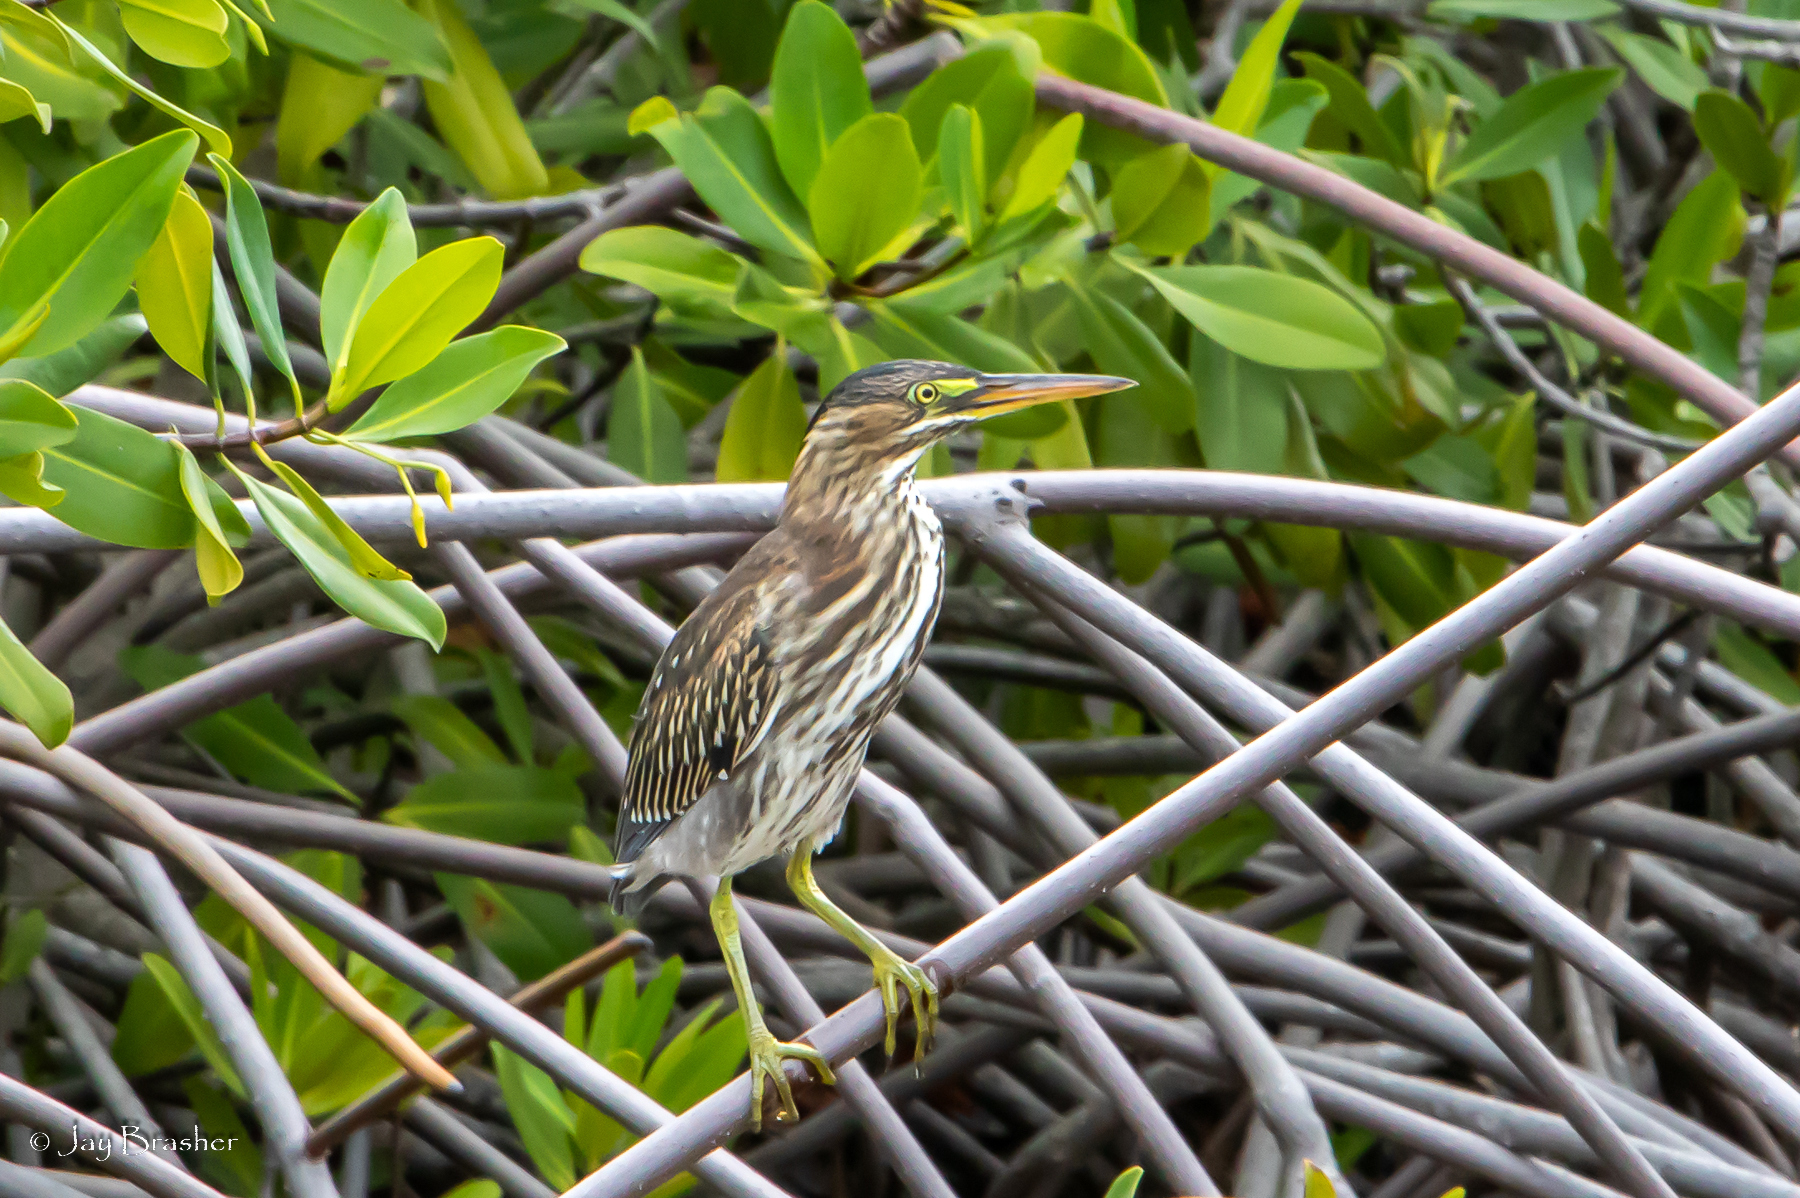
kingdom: Animalia
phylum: Chordata
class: Aves
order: Pelecaniformes
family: Ardeidae
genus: Butorides
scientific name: Butorides virescens
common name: Green heron
